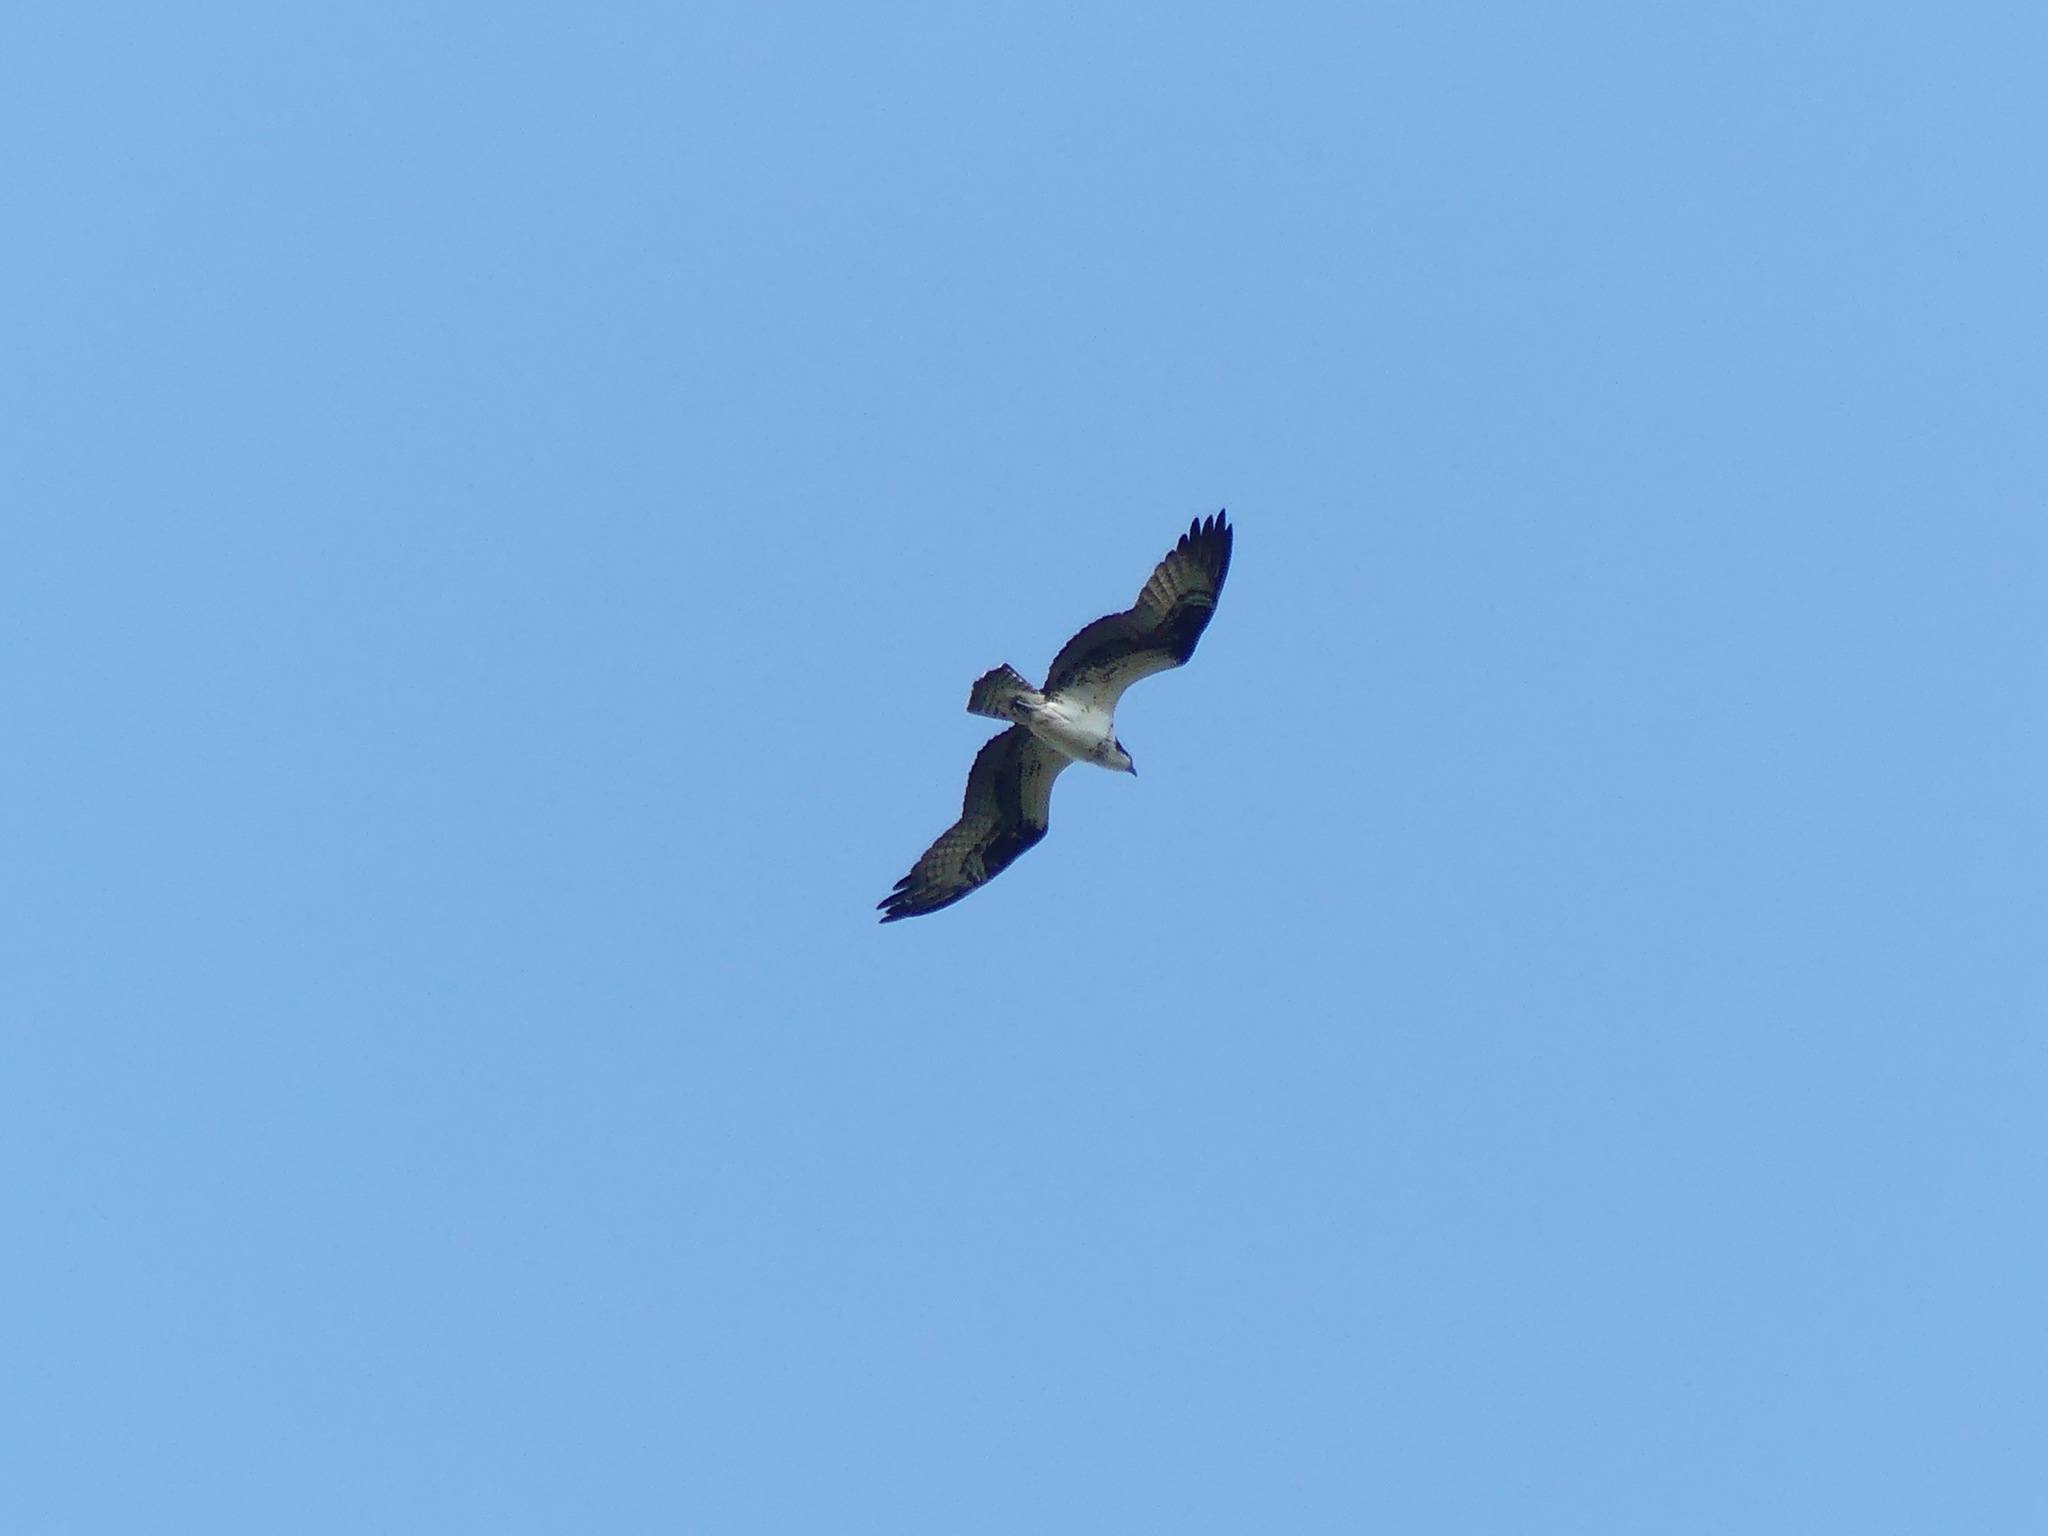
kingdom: Animalia
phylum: Chordata
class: Aves
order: Accipitriformes
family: Pandionidae
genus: Pandion
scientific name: Pandion haliaetus
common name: Osprey
